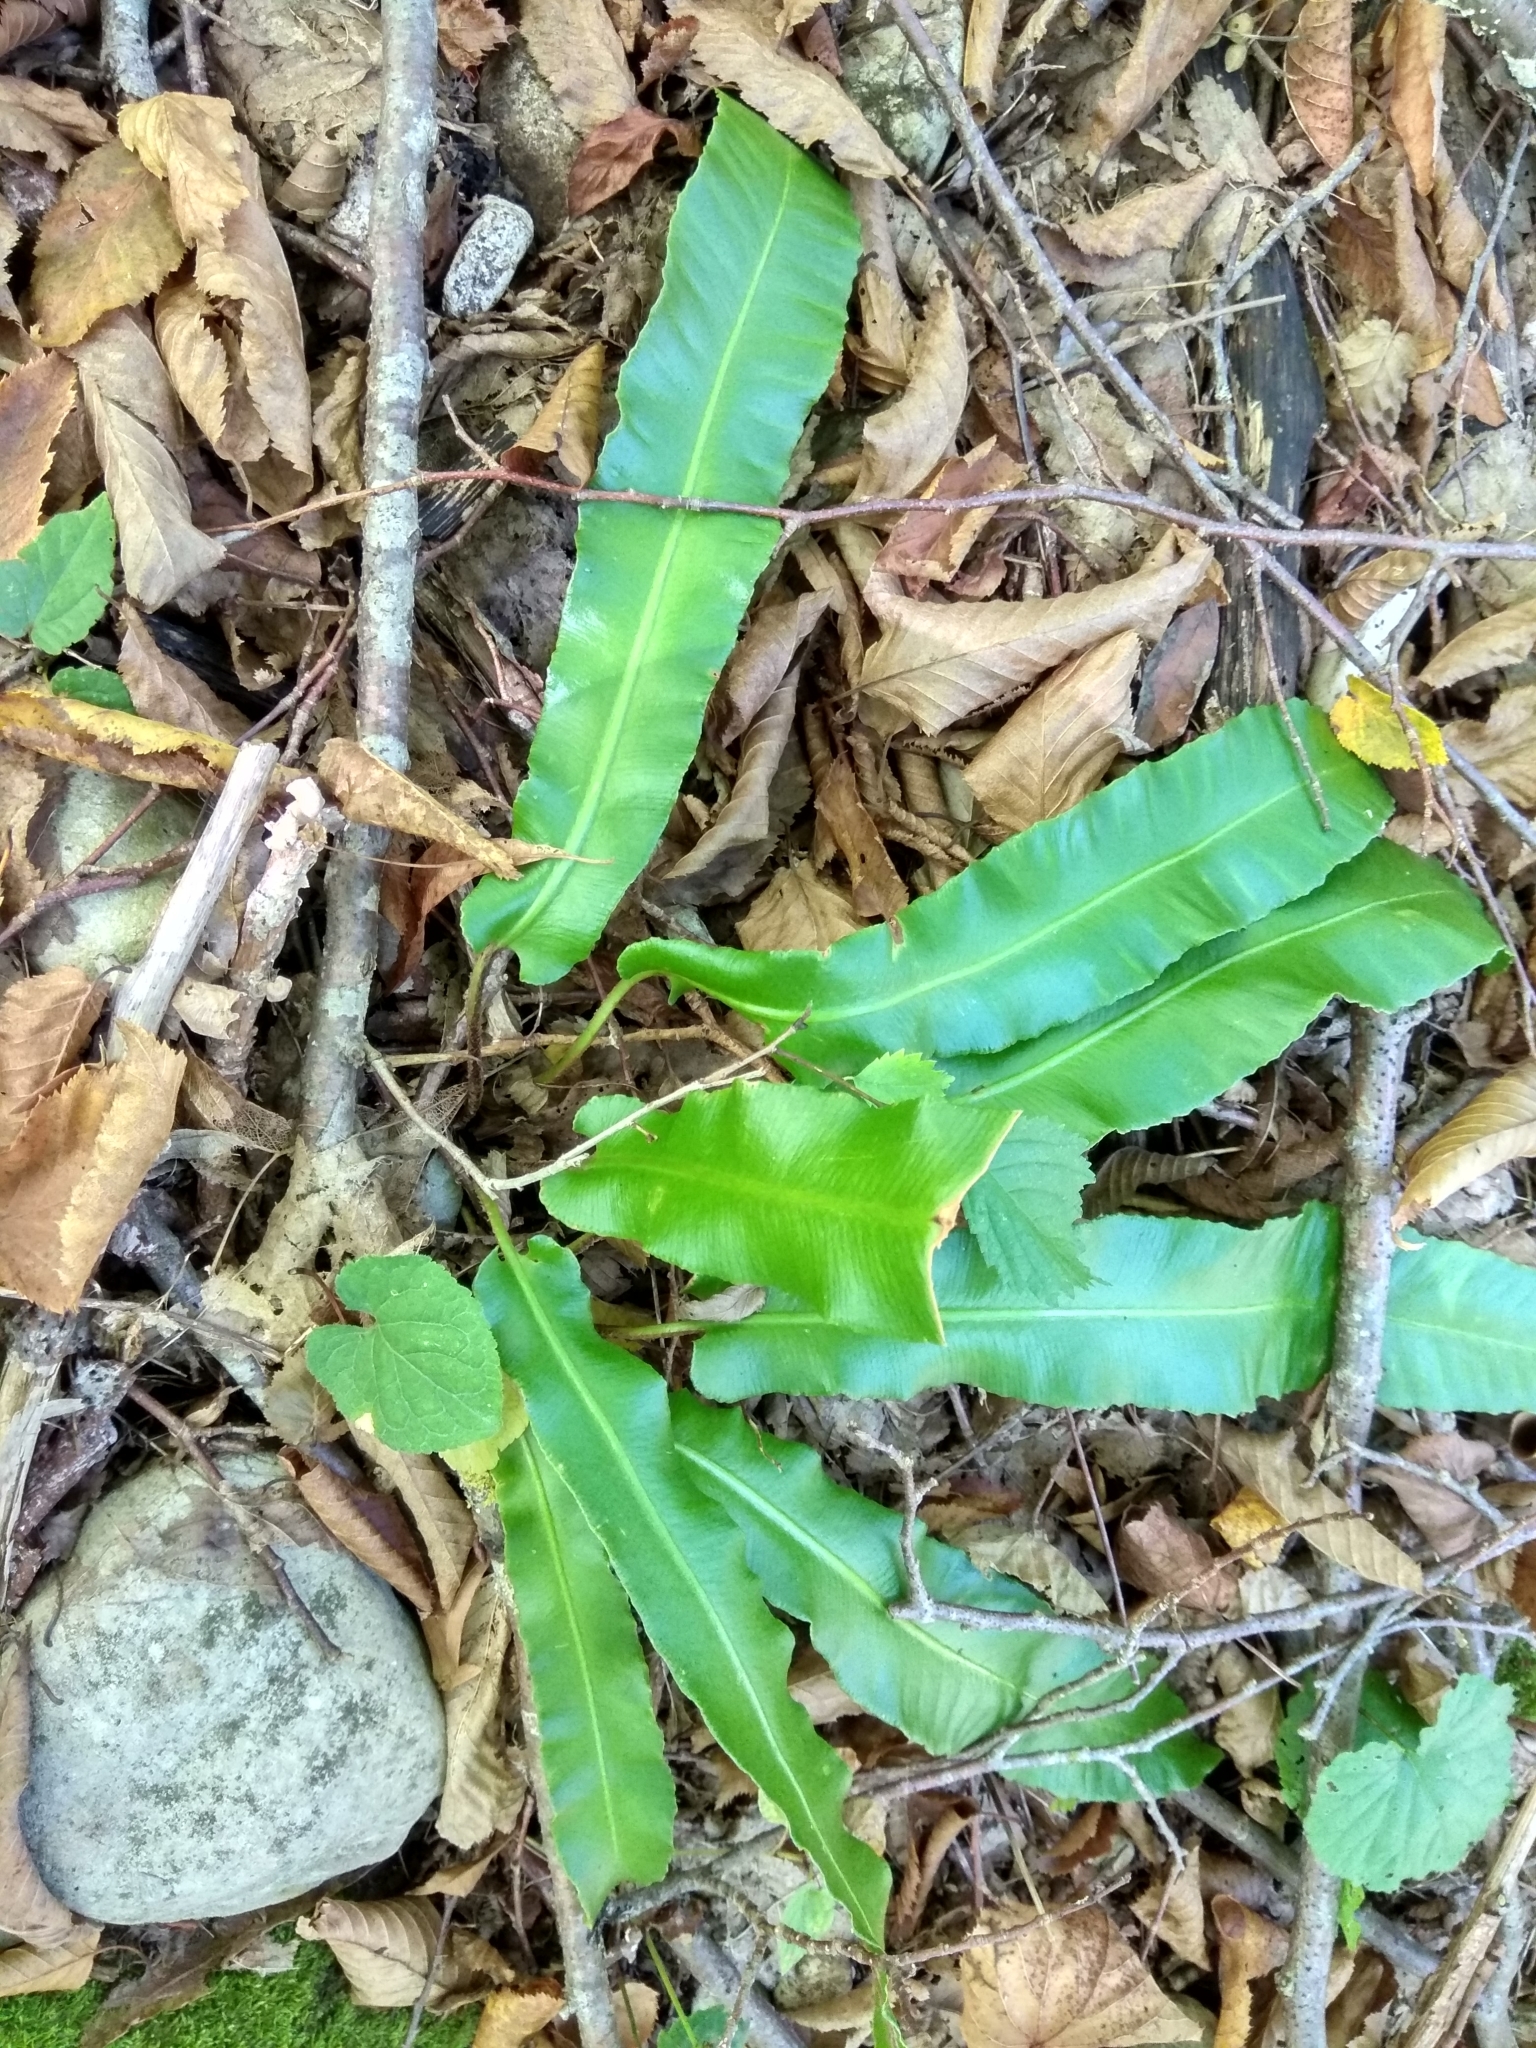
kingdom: Plantae
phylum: Tracheophyta
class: Polypodiopsida
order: Polypodiales
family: Aspleniaceae
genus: Asplenium
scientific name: Asplenium scolopendrium
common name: Hart's-tongue fern
